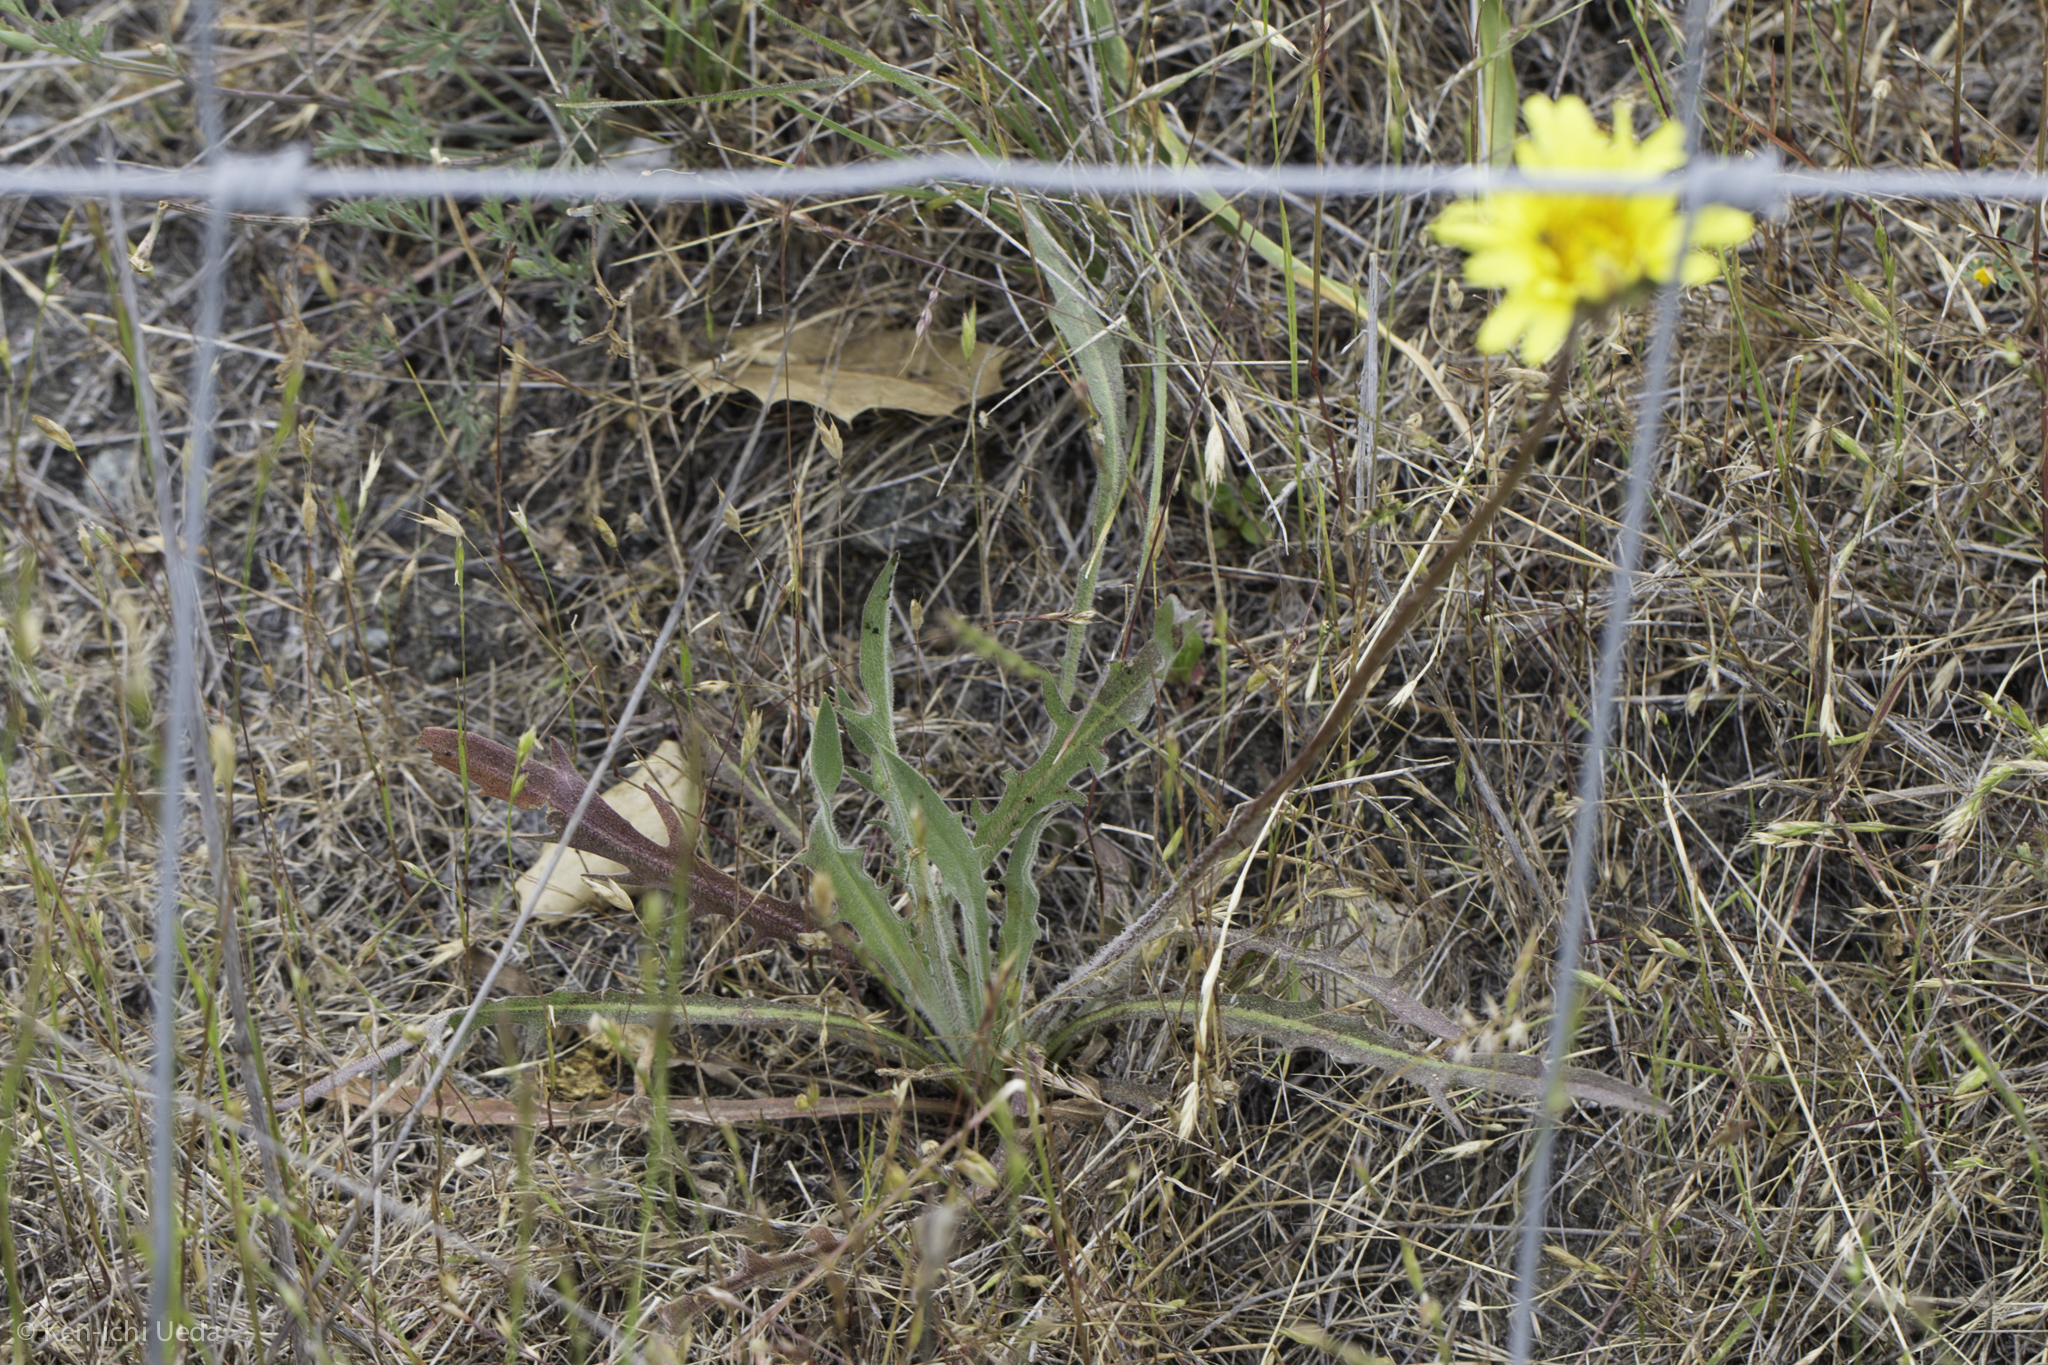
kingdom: Plantae
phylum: Tracheophyta
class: Magnoliopsida
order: Asterales
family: Asteraceae
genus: Agoseris
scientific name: Agoseris grandiflora
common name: Grassland agoseris
